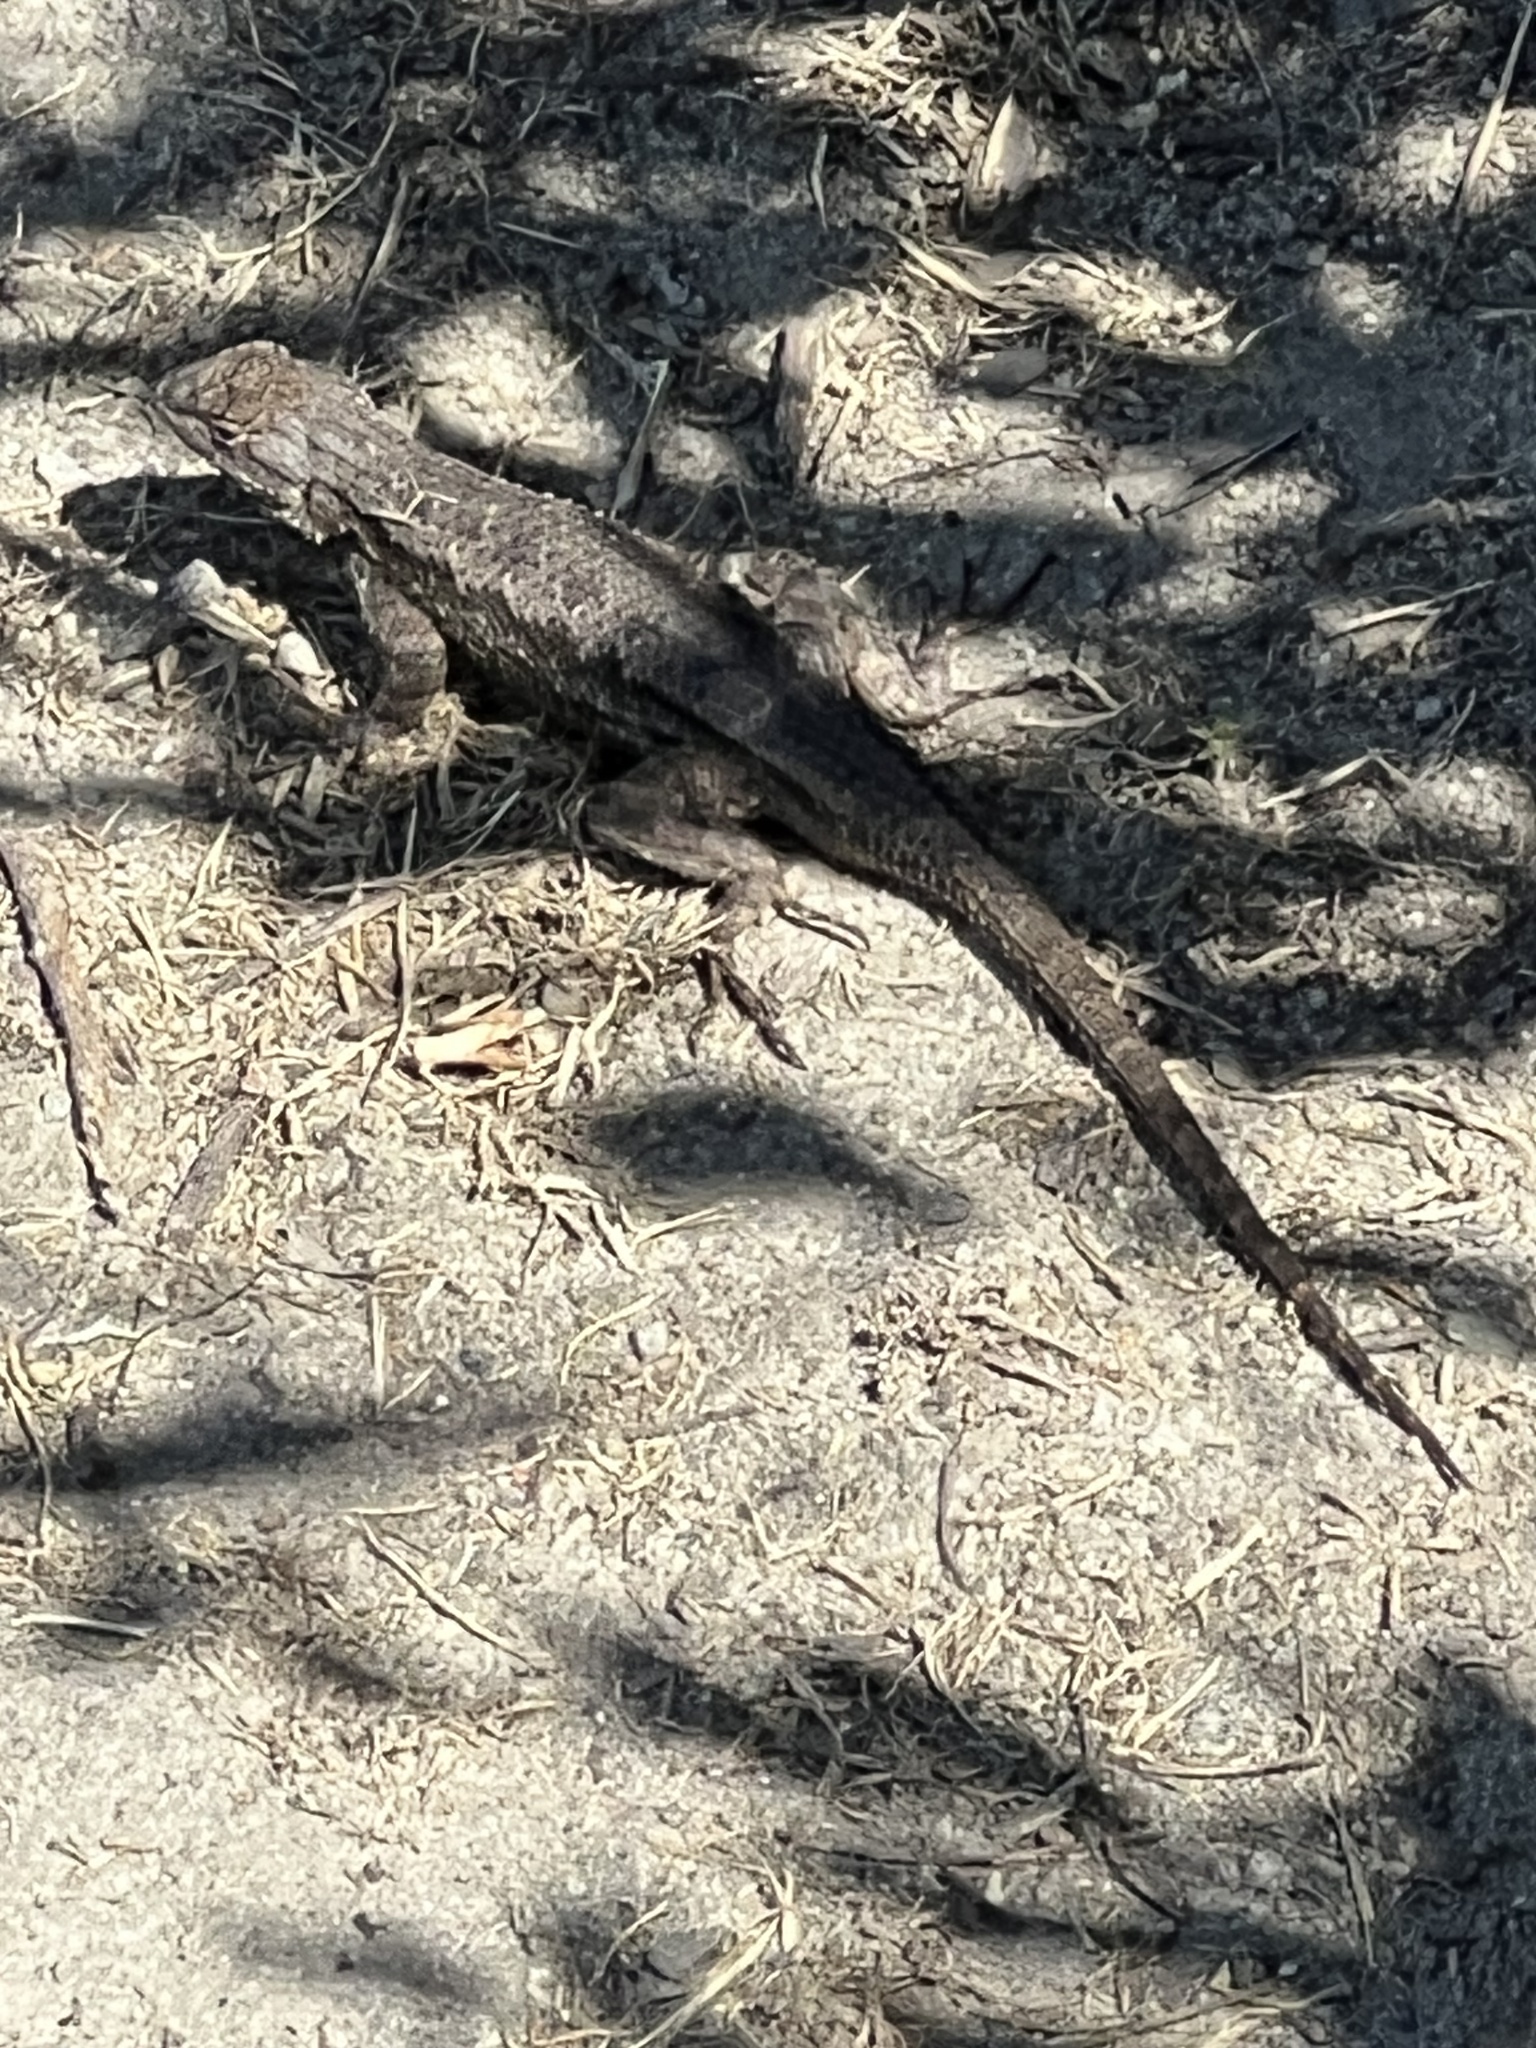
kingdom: Animalia
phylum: Chordata
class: Squamata
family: Phrynosomatidae
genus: Sceloporus
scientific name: Sceloporus occidentalis
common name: Western fence lizard
